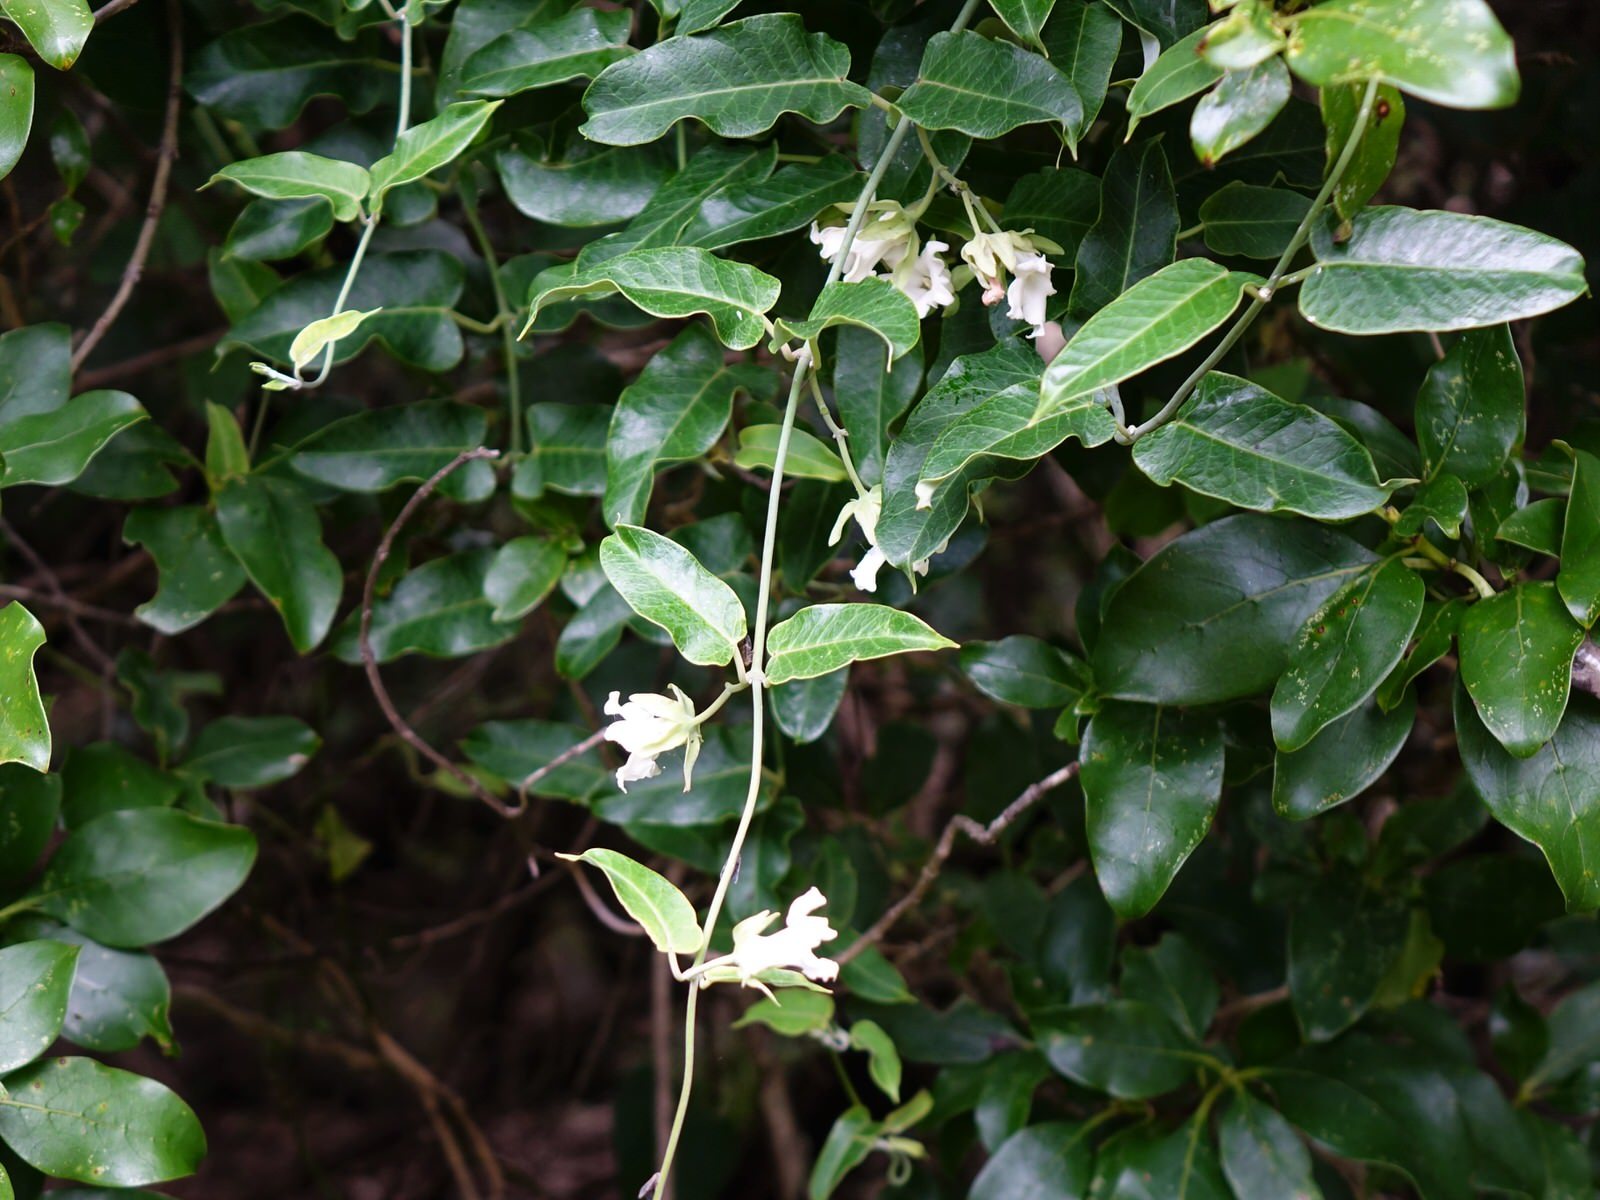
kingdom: Plantae
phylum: Tracheophyta
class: Magnoliopsida
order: Gentianales
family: Apocynaceae
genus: Araujia
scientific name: Araujia sericifera
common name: White bladderflower
